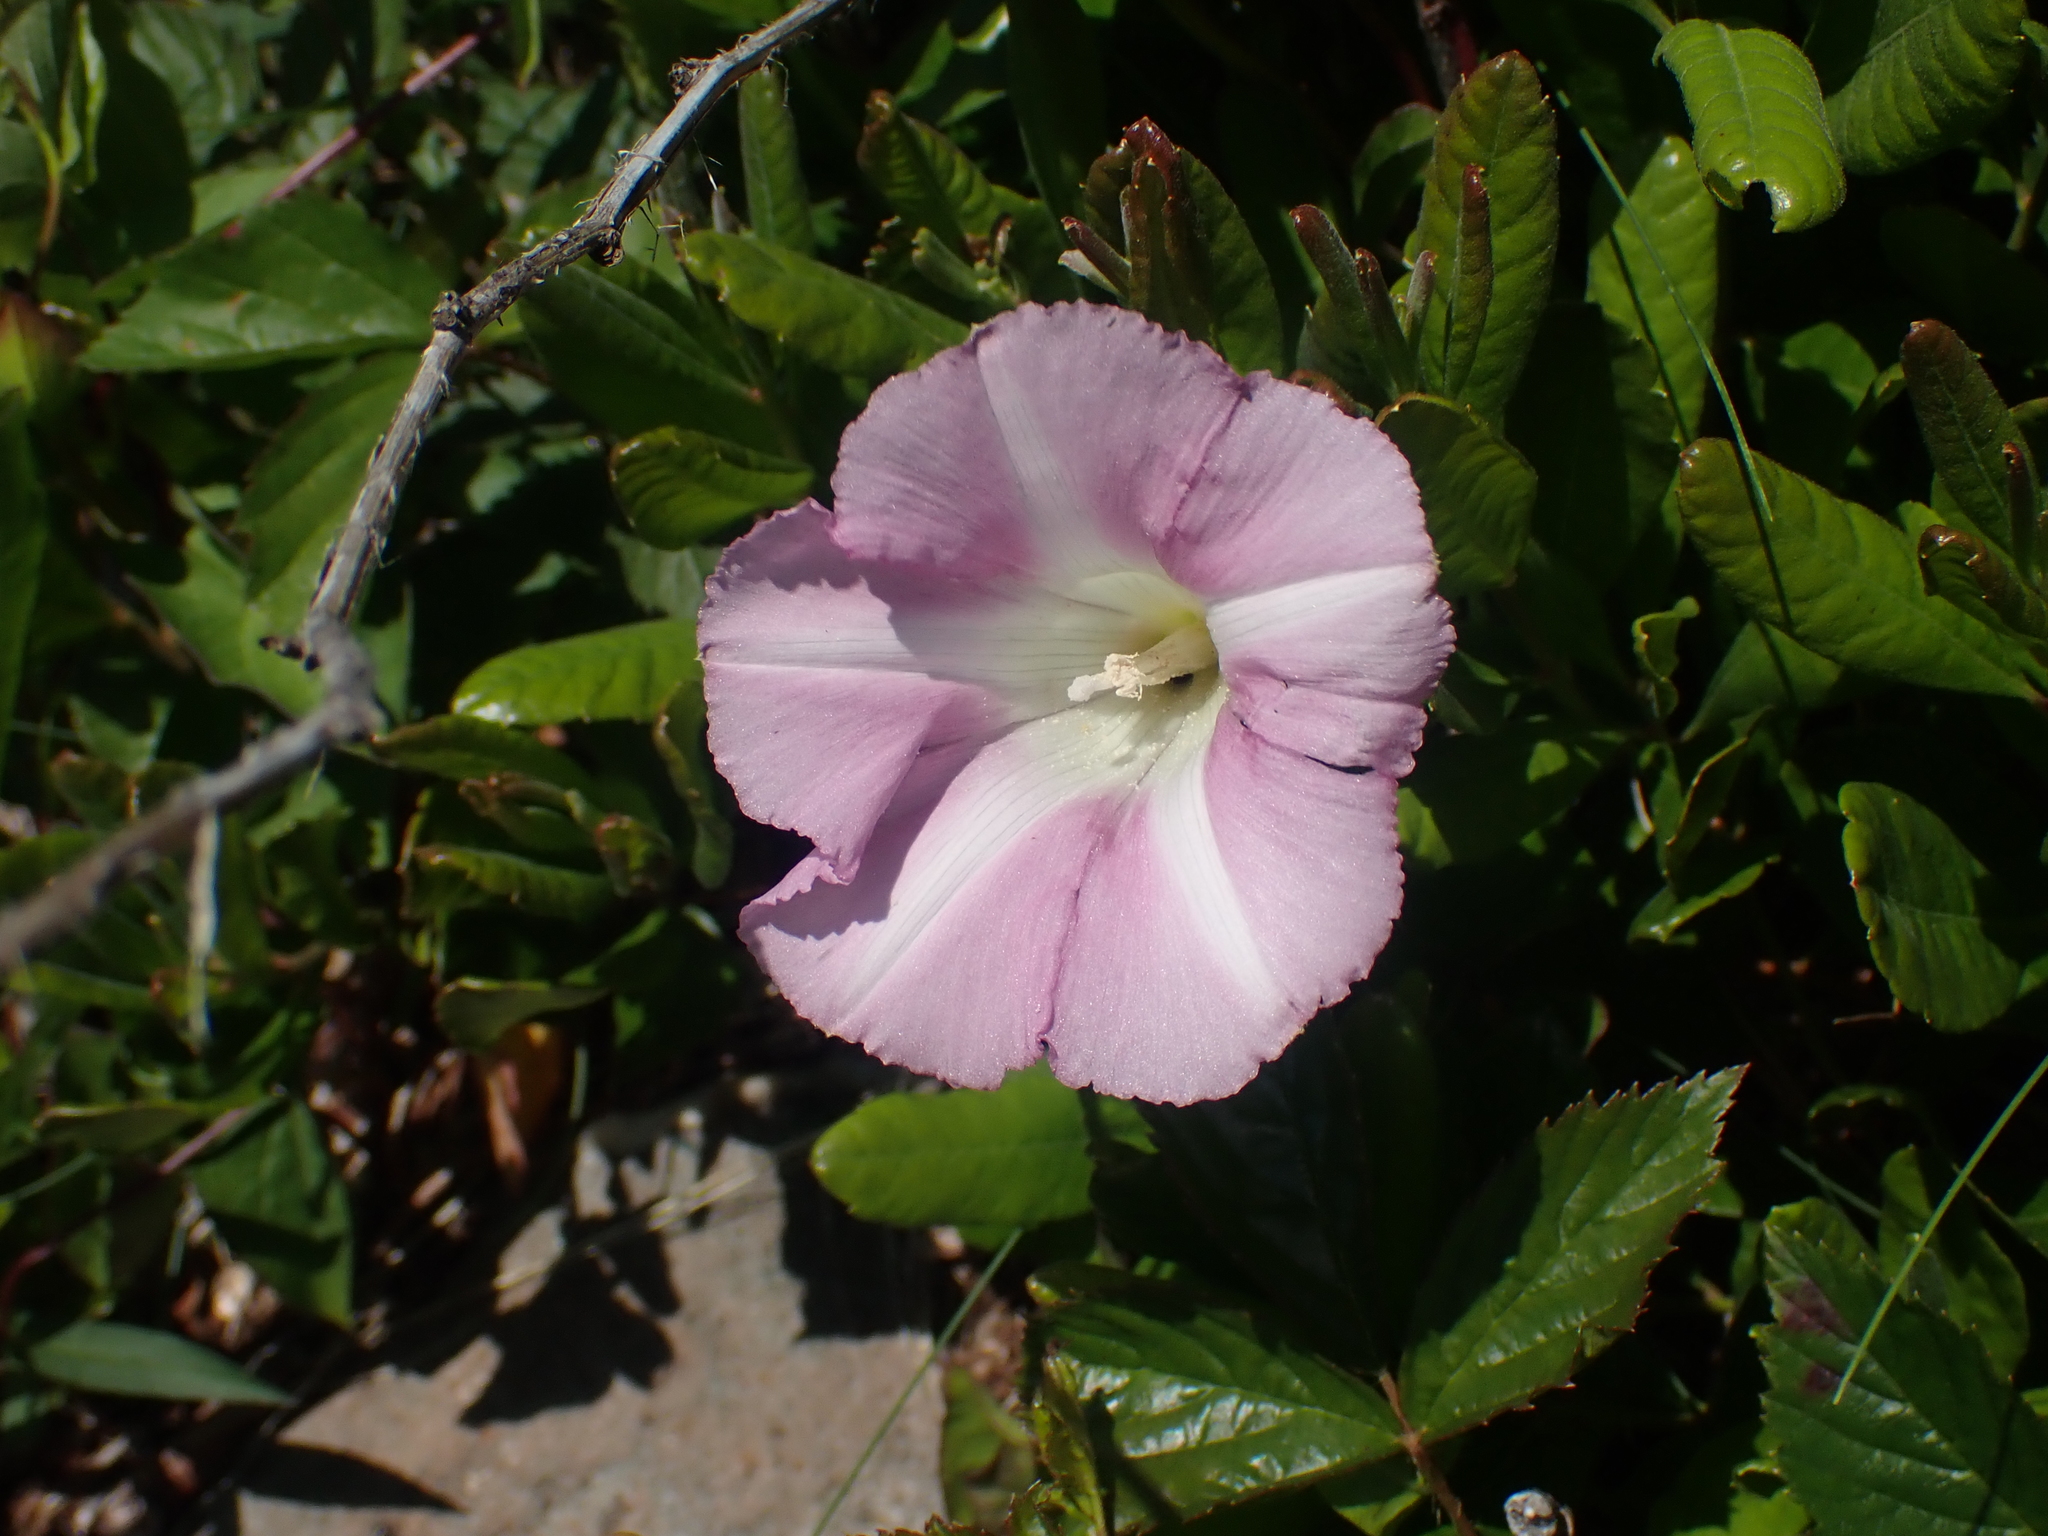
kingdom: Plantae
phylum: Tracheophyta
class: Magnoliopsida
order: Solanales
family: Convolvulaceae
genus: Calystegia
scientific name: Calystegia sepium
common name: Hedge bindweed
